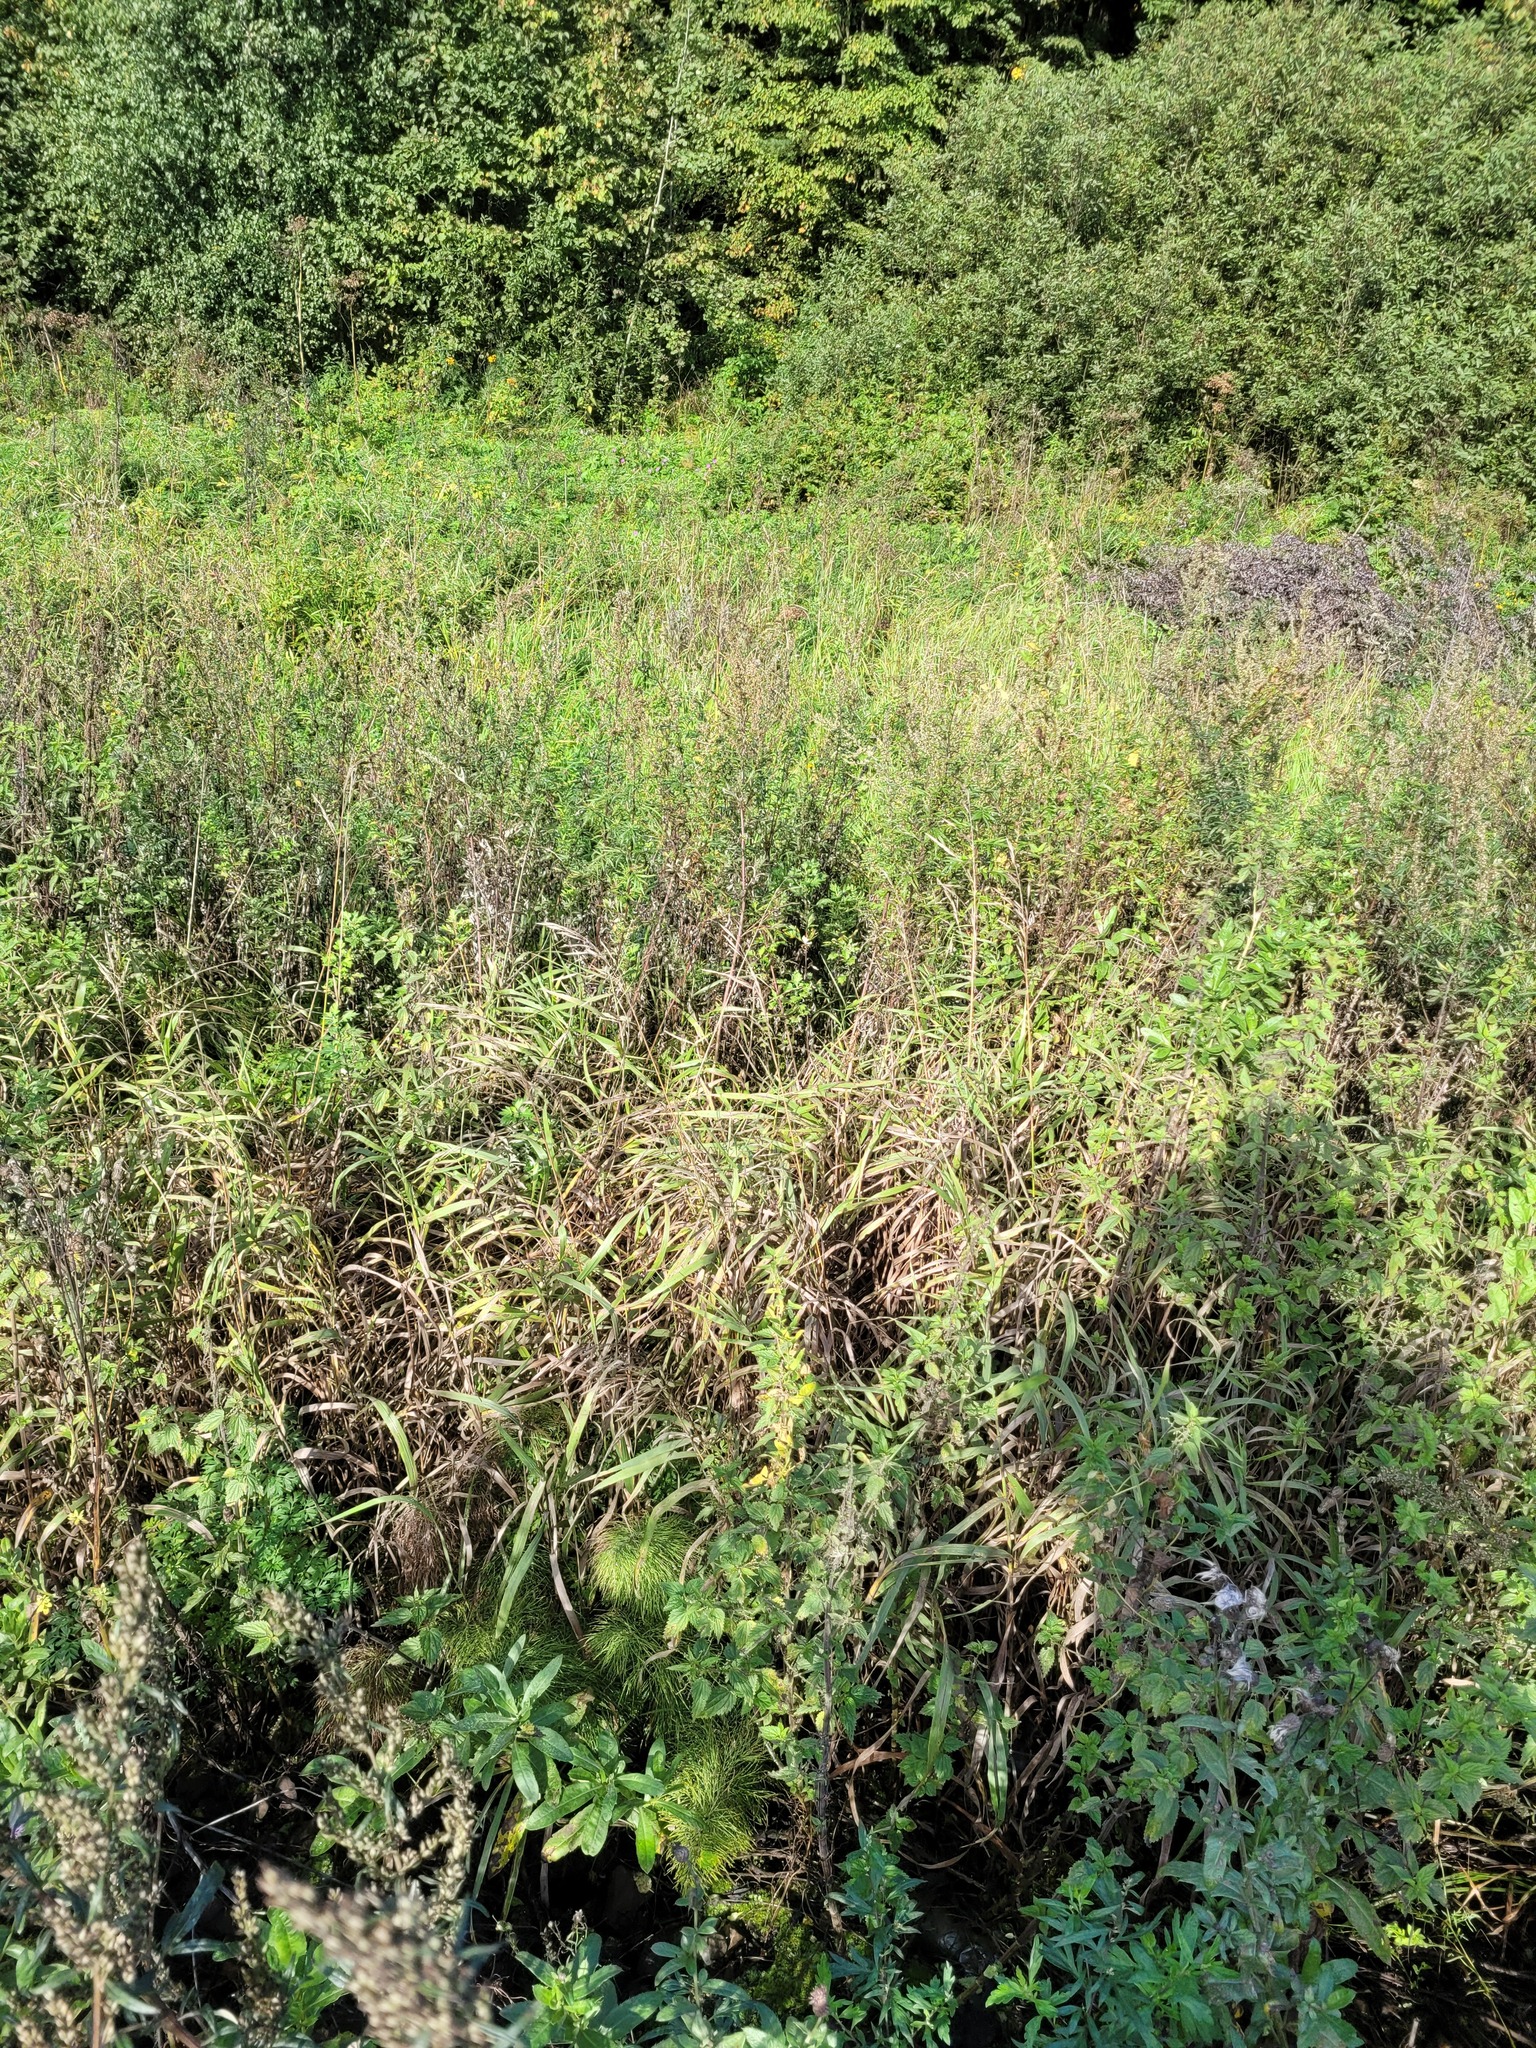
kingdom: Plantae
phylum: Tracheophyta
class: Liliopsida
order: Poales
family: Poaceae
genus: Bromus
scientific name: Bromus inermis
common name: Smooth brome
